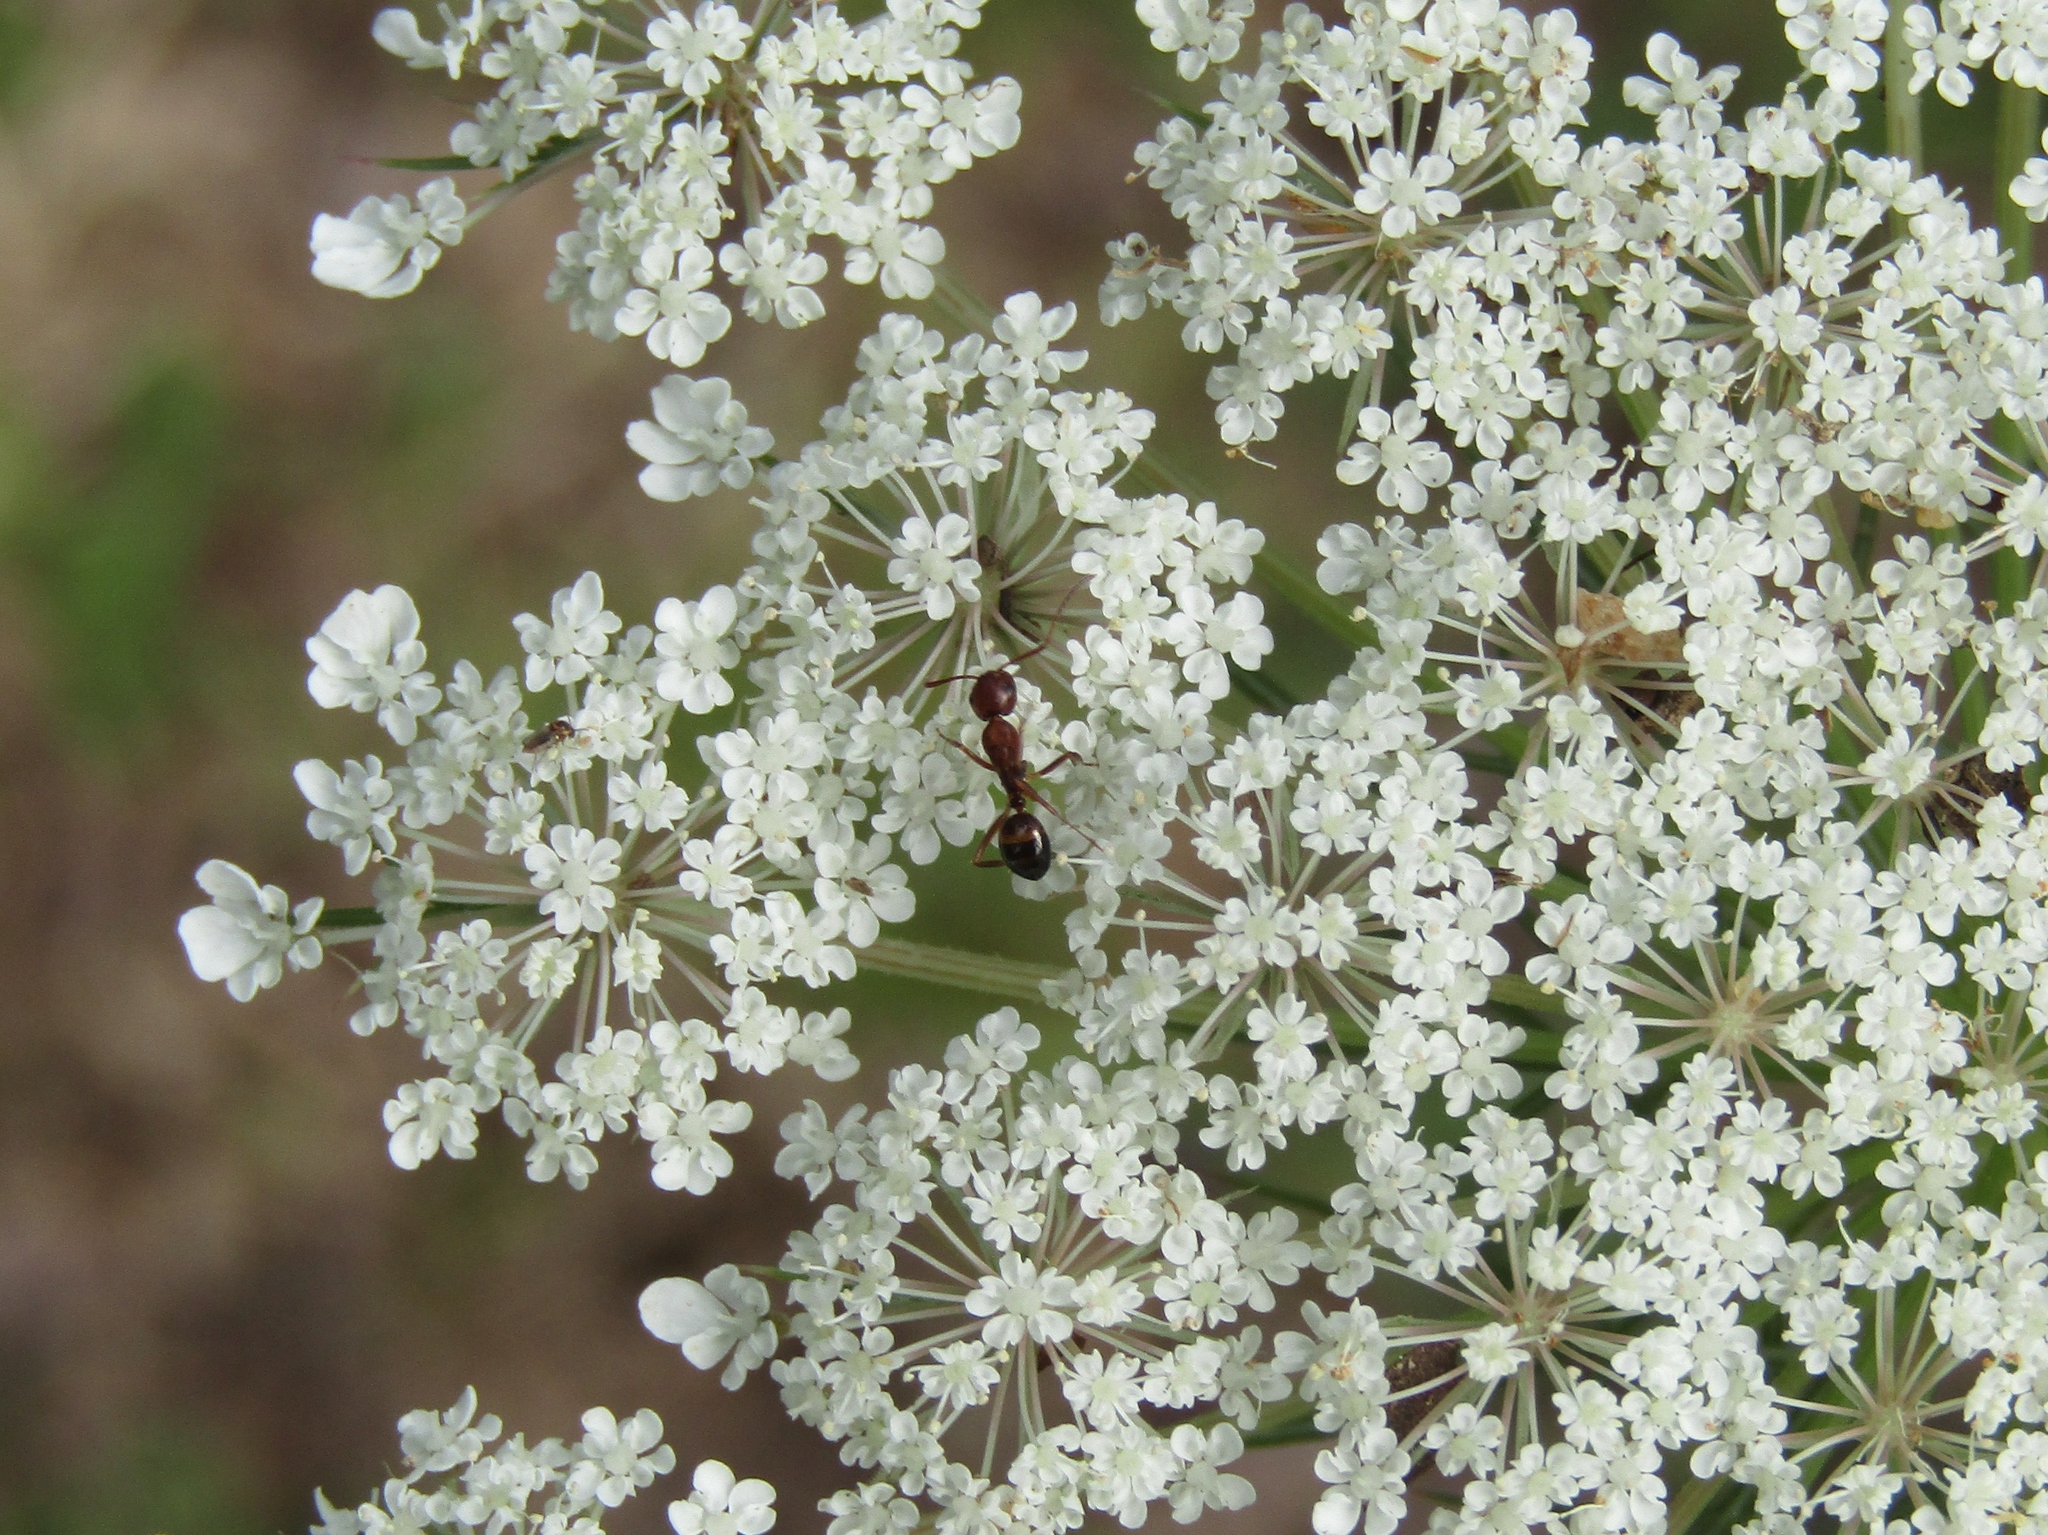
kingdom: Animalia
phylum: Arthropoda
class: Insecta
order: Hymenoptera
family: Formicidae
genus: Camponotus
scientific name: Camponotus subbarbatus
